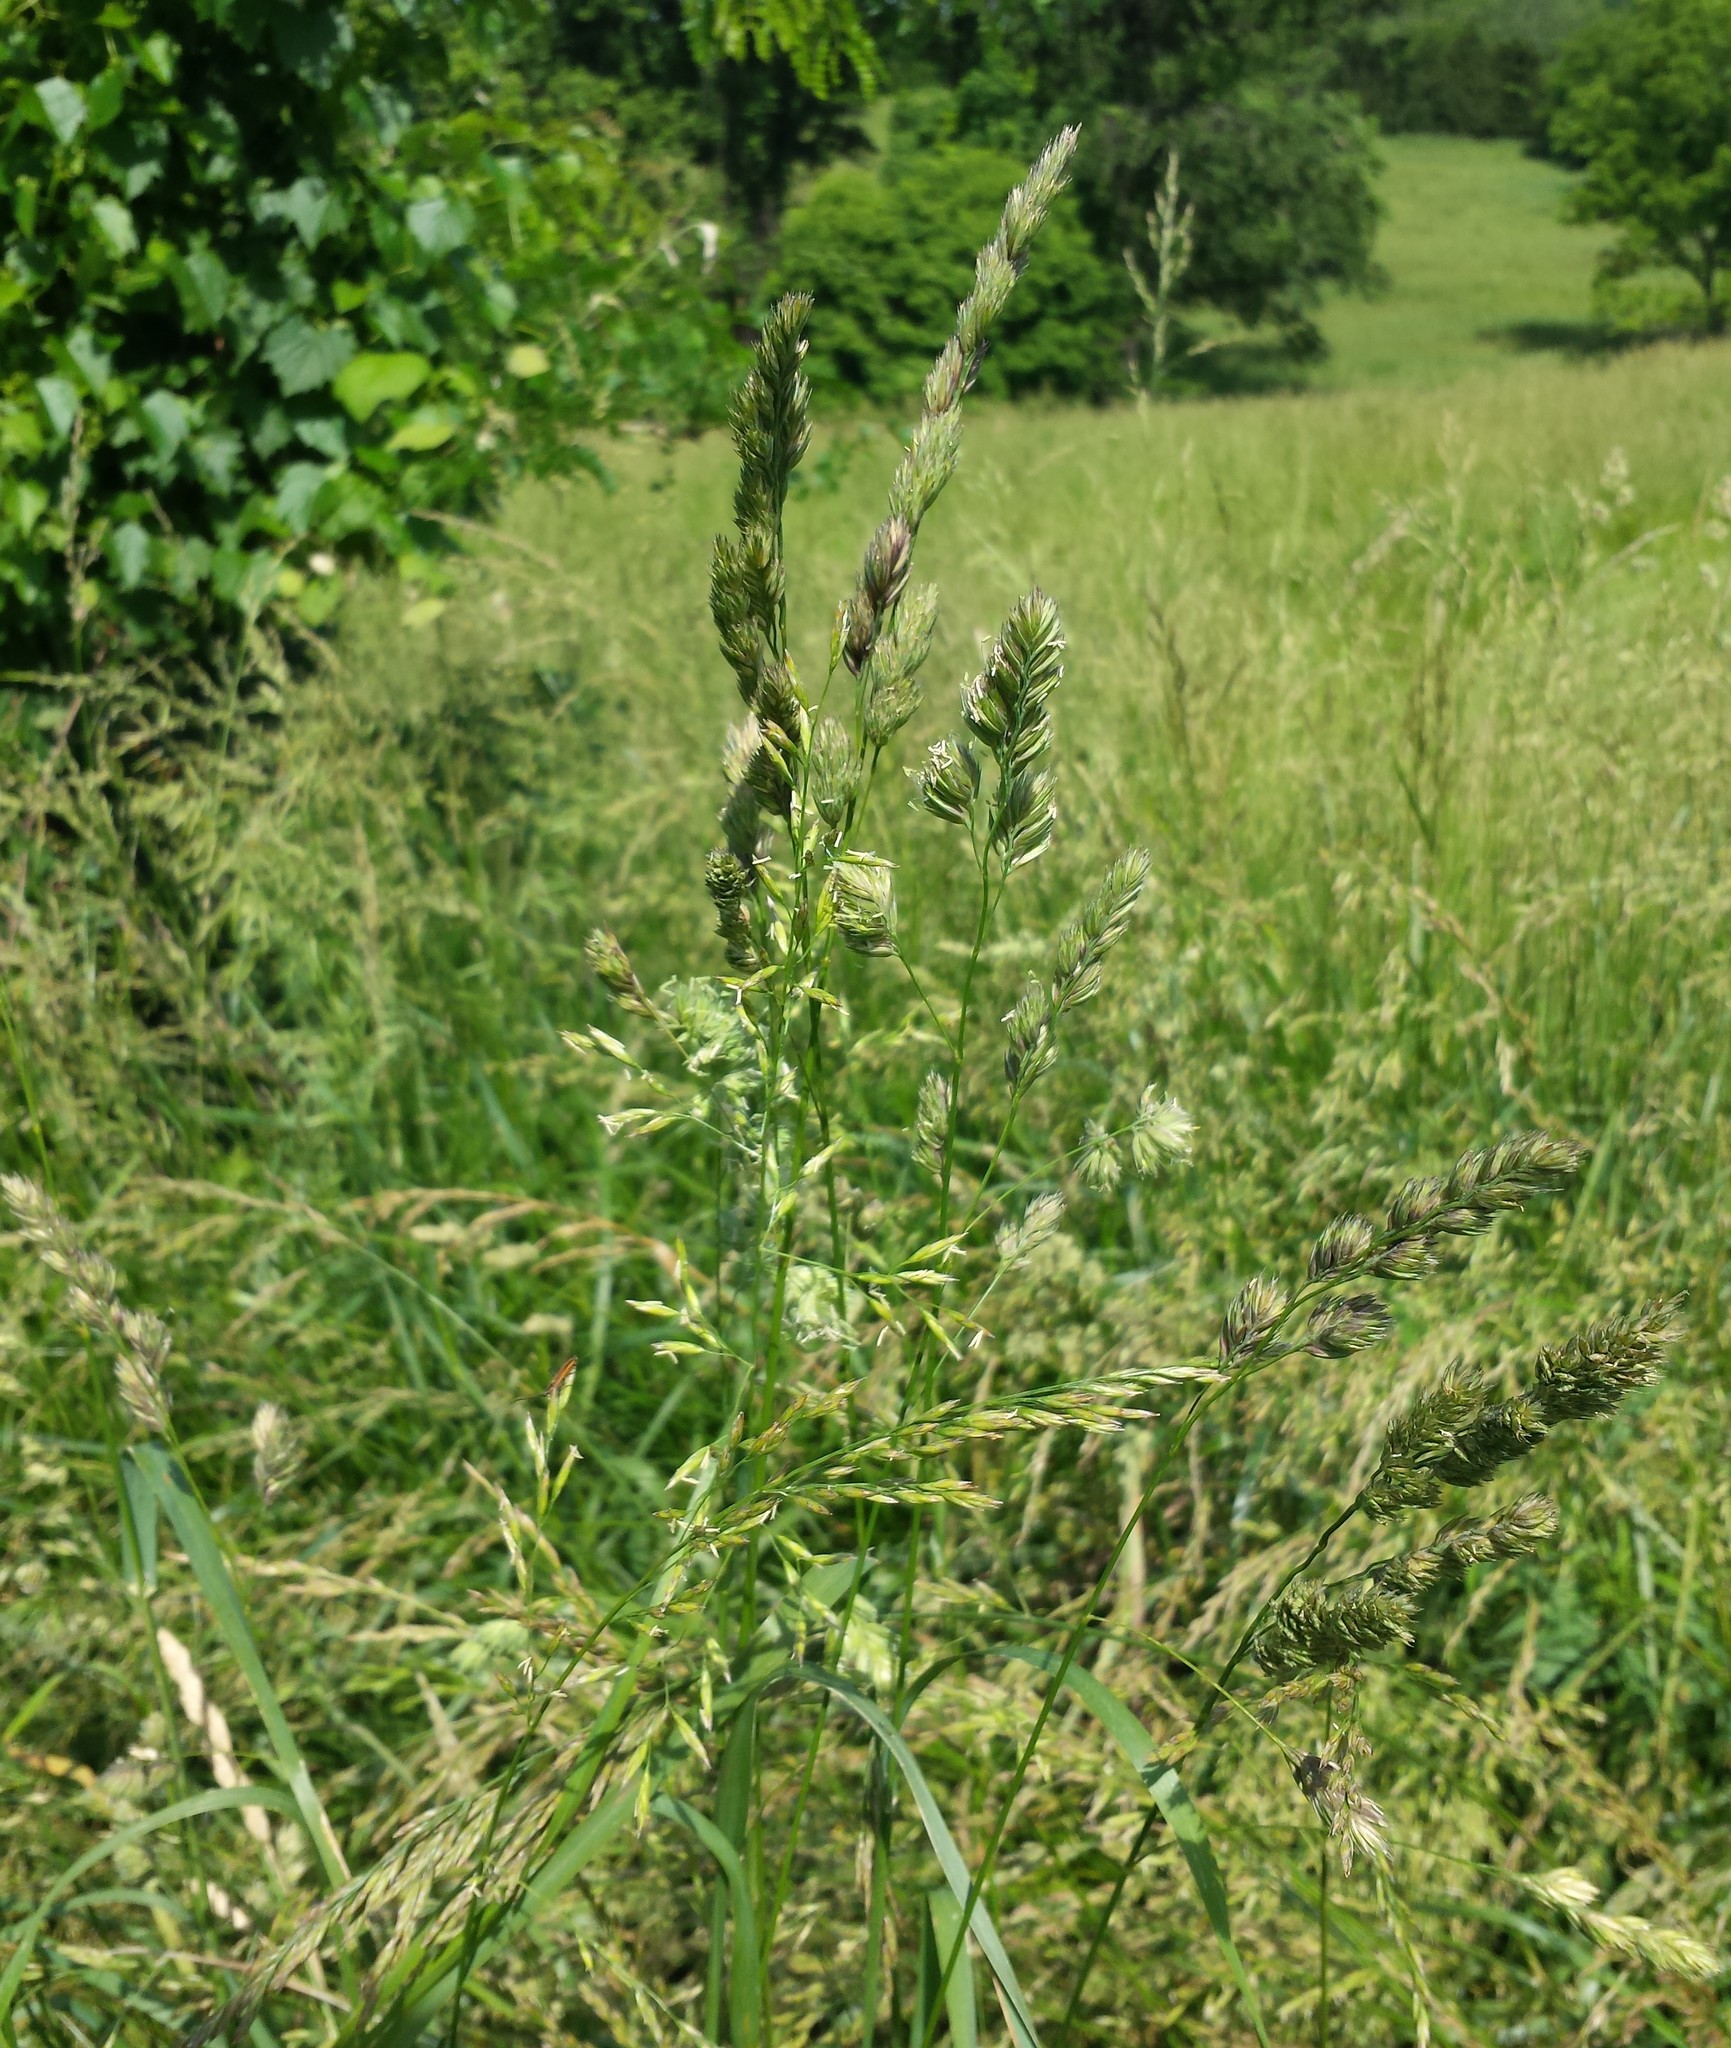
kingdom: Plantae
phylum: Tracheophyta
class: Liliopsida
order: Poales
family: Poaceae
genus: Dactylis
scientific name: Dactylis glomerata
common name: Orchardgrass
